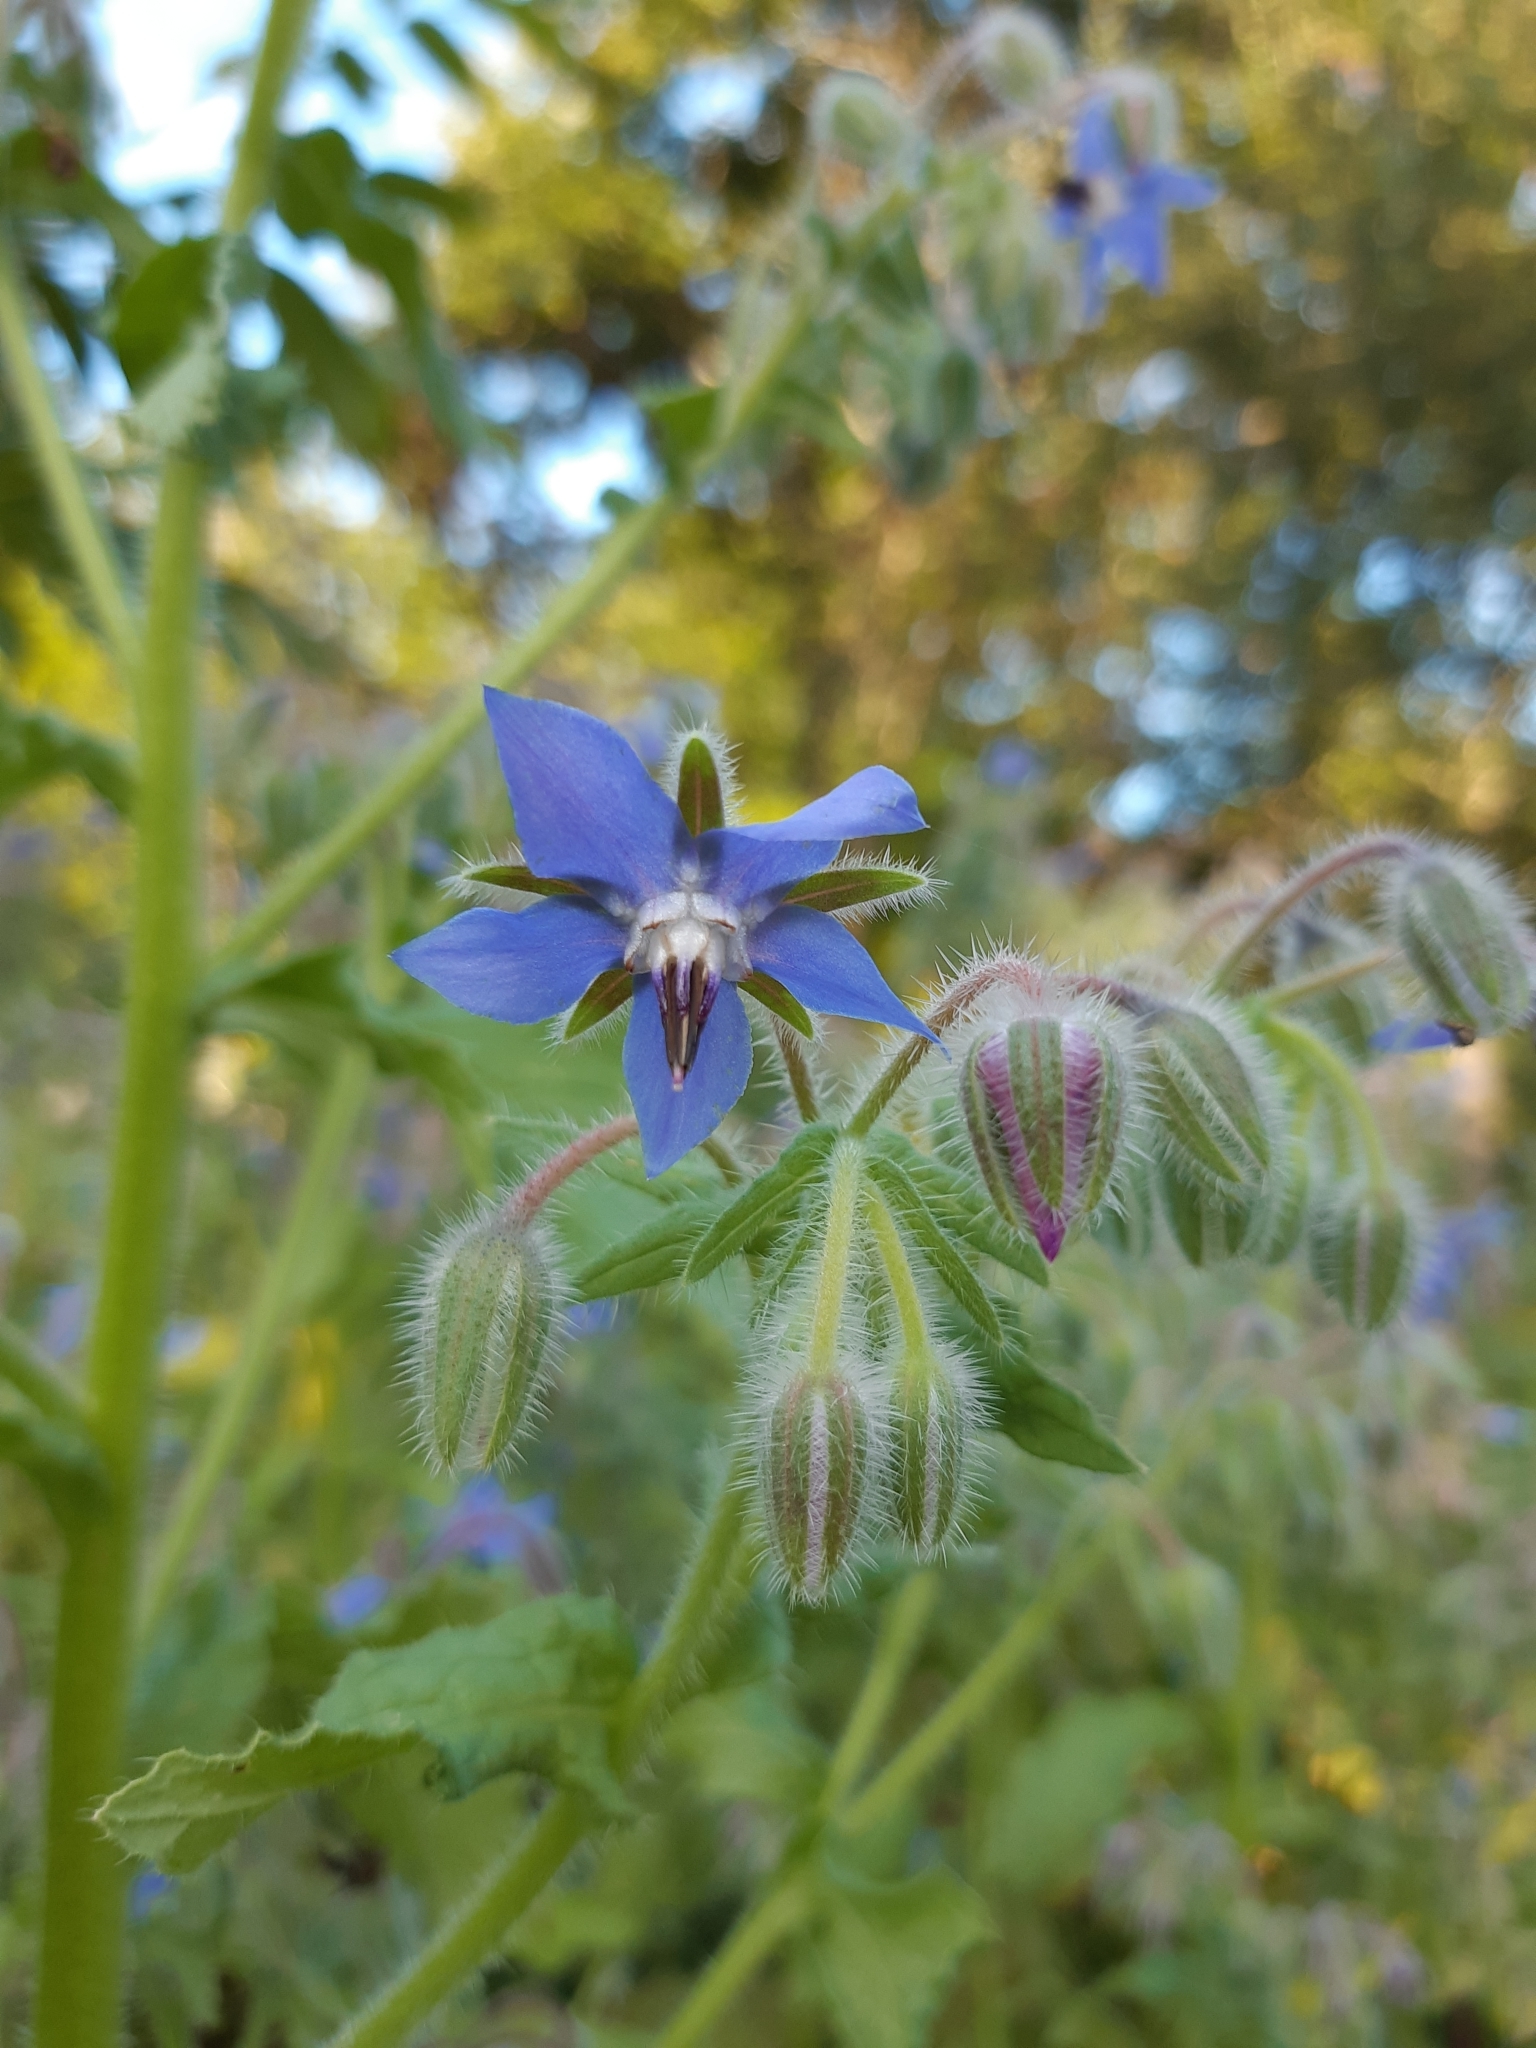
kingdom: Plantae
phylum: Tracheophyta
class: Magnoliopsida
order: Boraginales
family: Boraginaceae
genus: Borago
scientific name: Borago officinalis
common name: Borage
